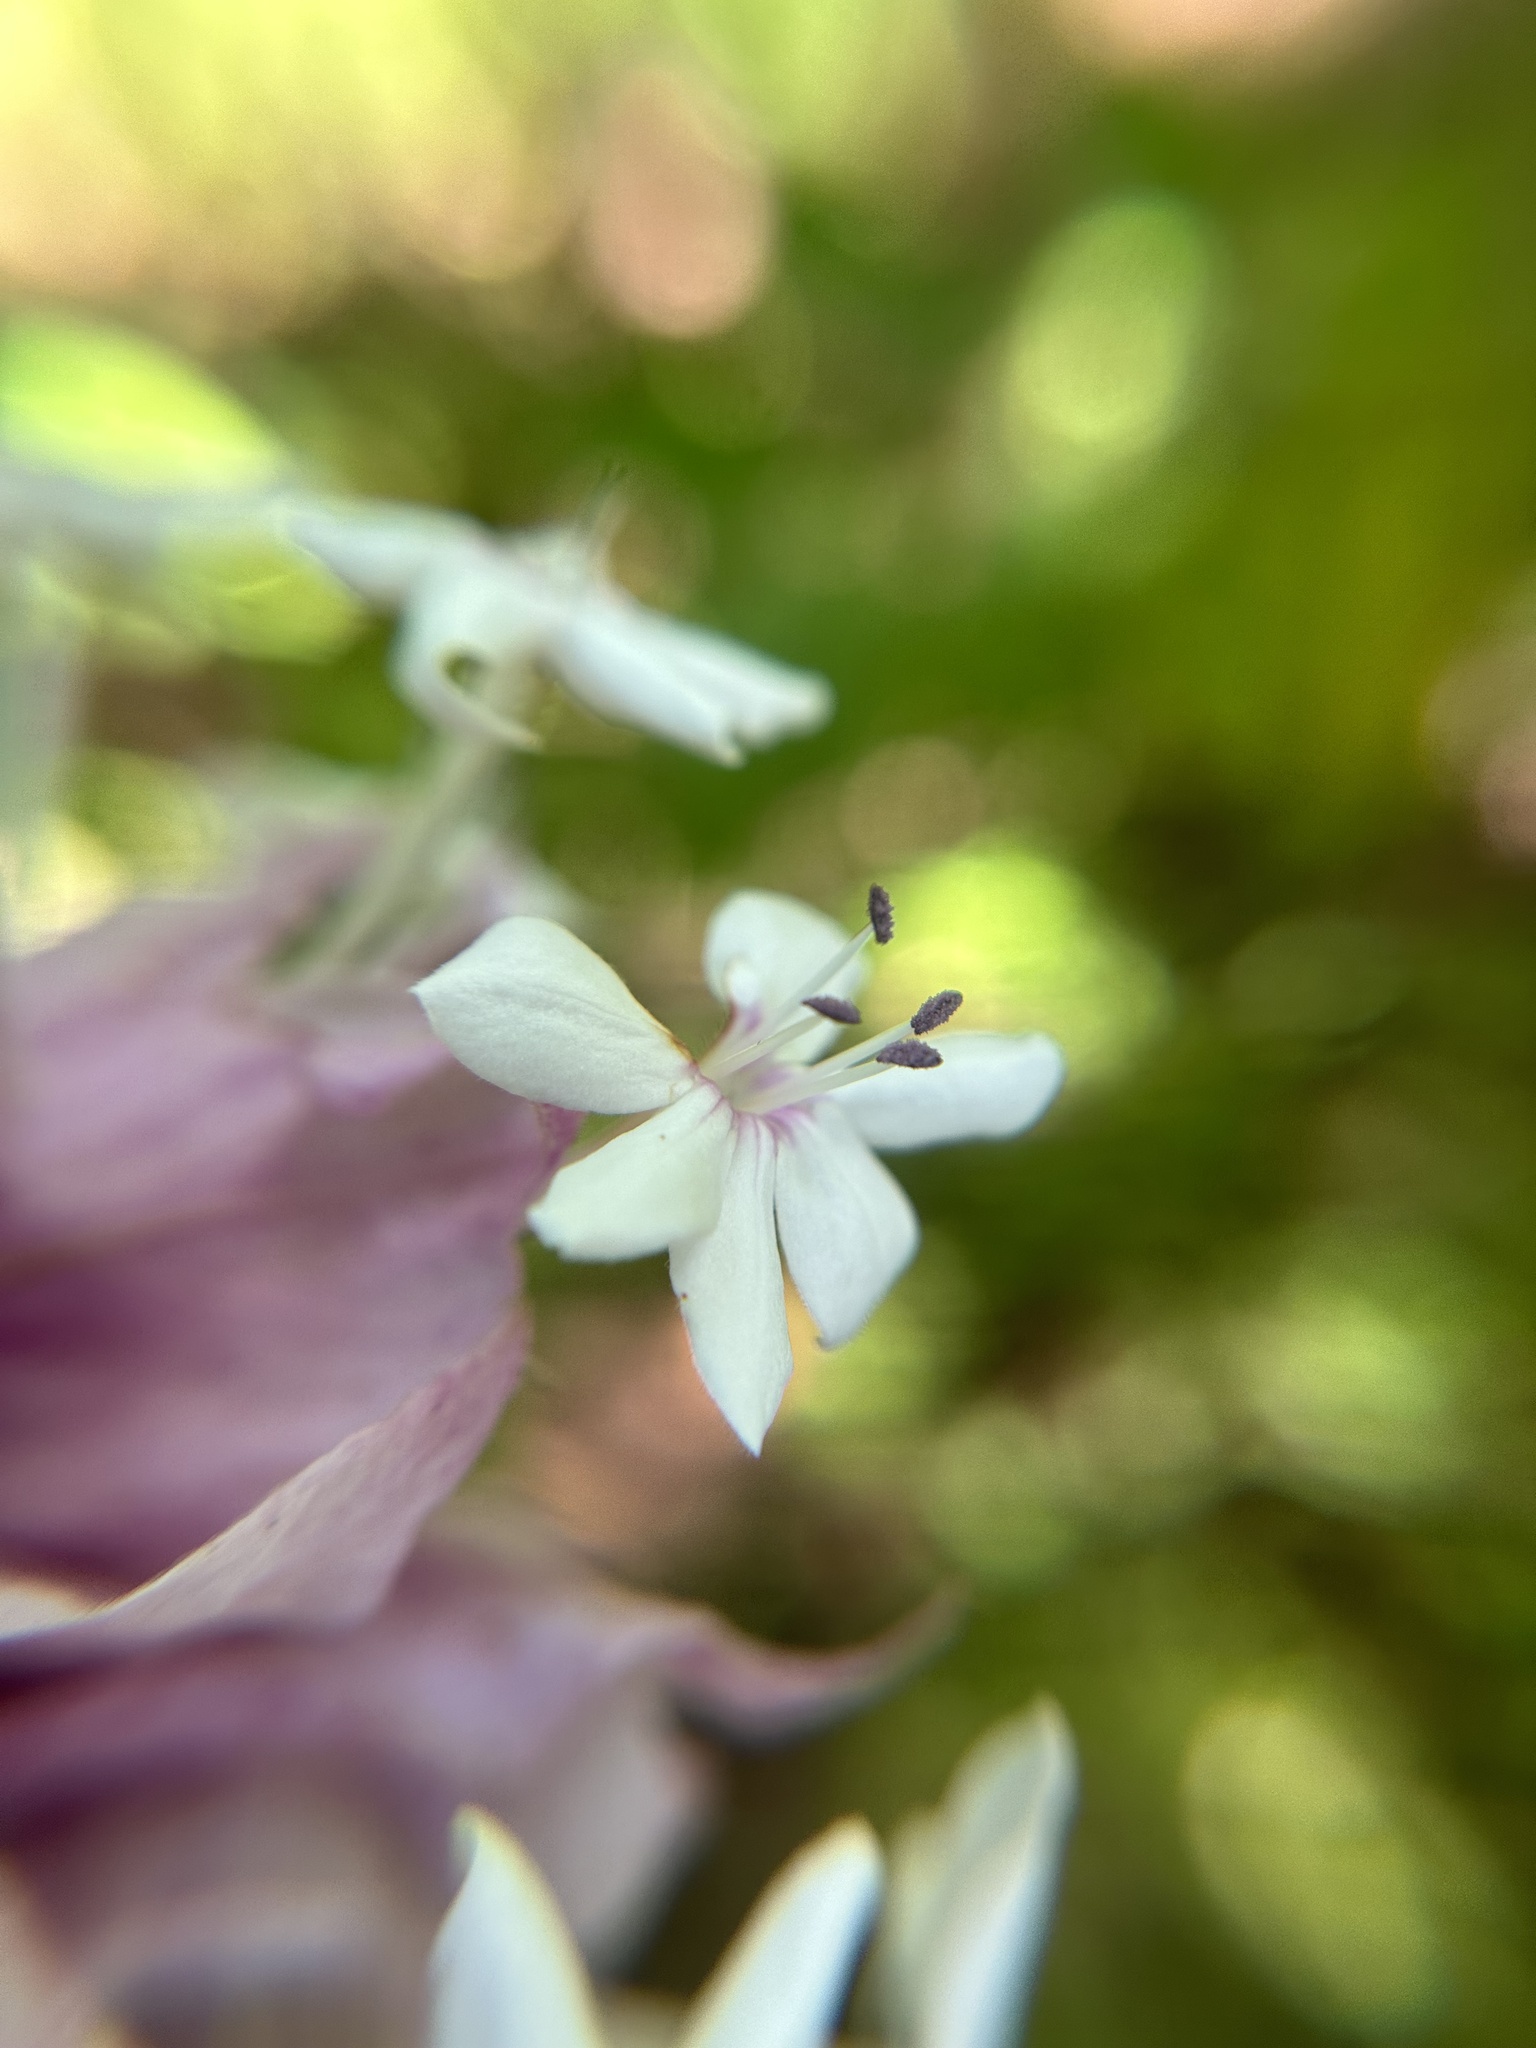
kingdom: Plantae
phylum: Tracheophyta
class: Magnoliopsida
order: Lamiales
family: Lamiaceae
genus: Clerodendrum
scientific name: Clerodendrum macrostegium
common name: Velvetleaf glorybower
